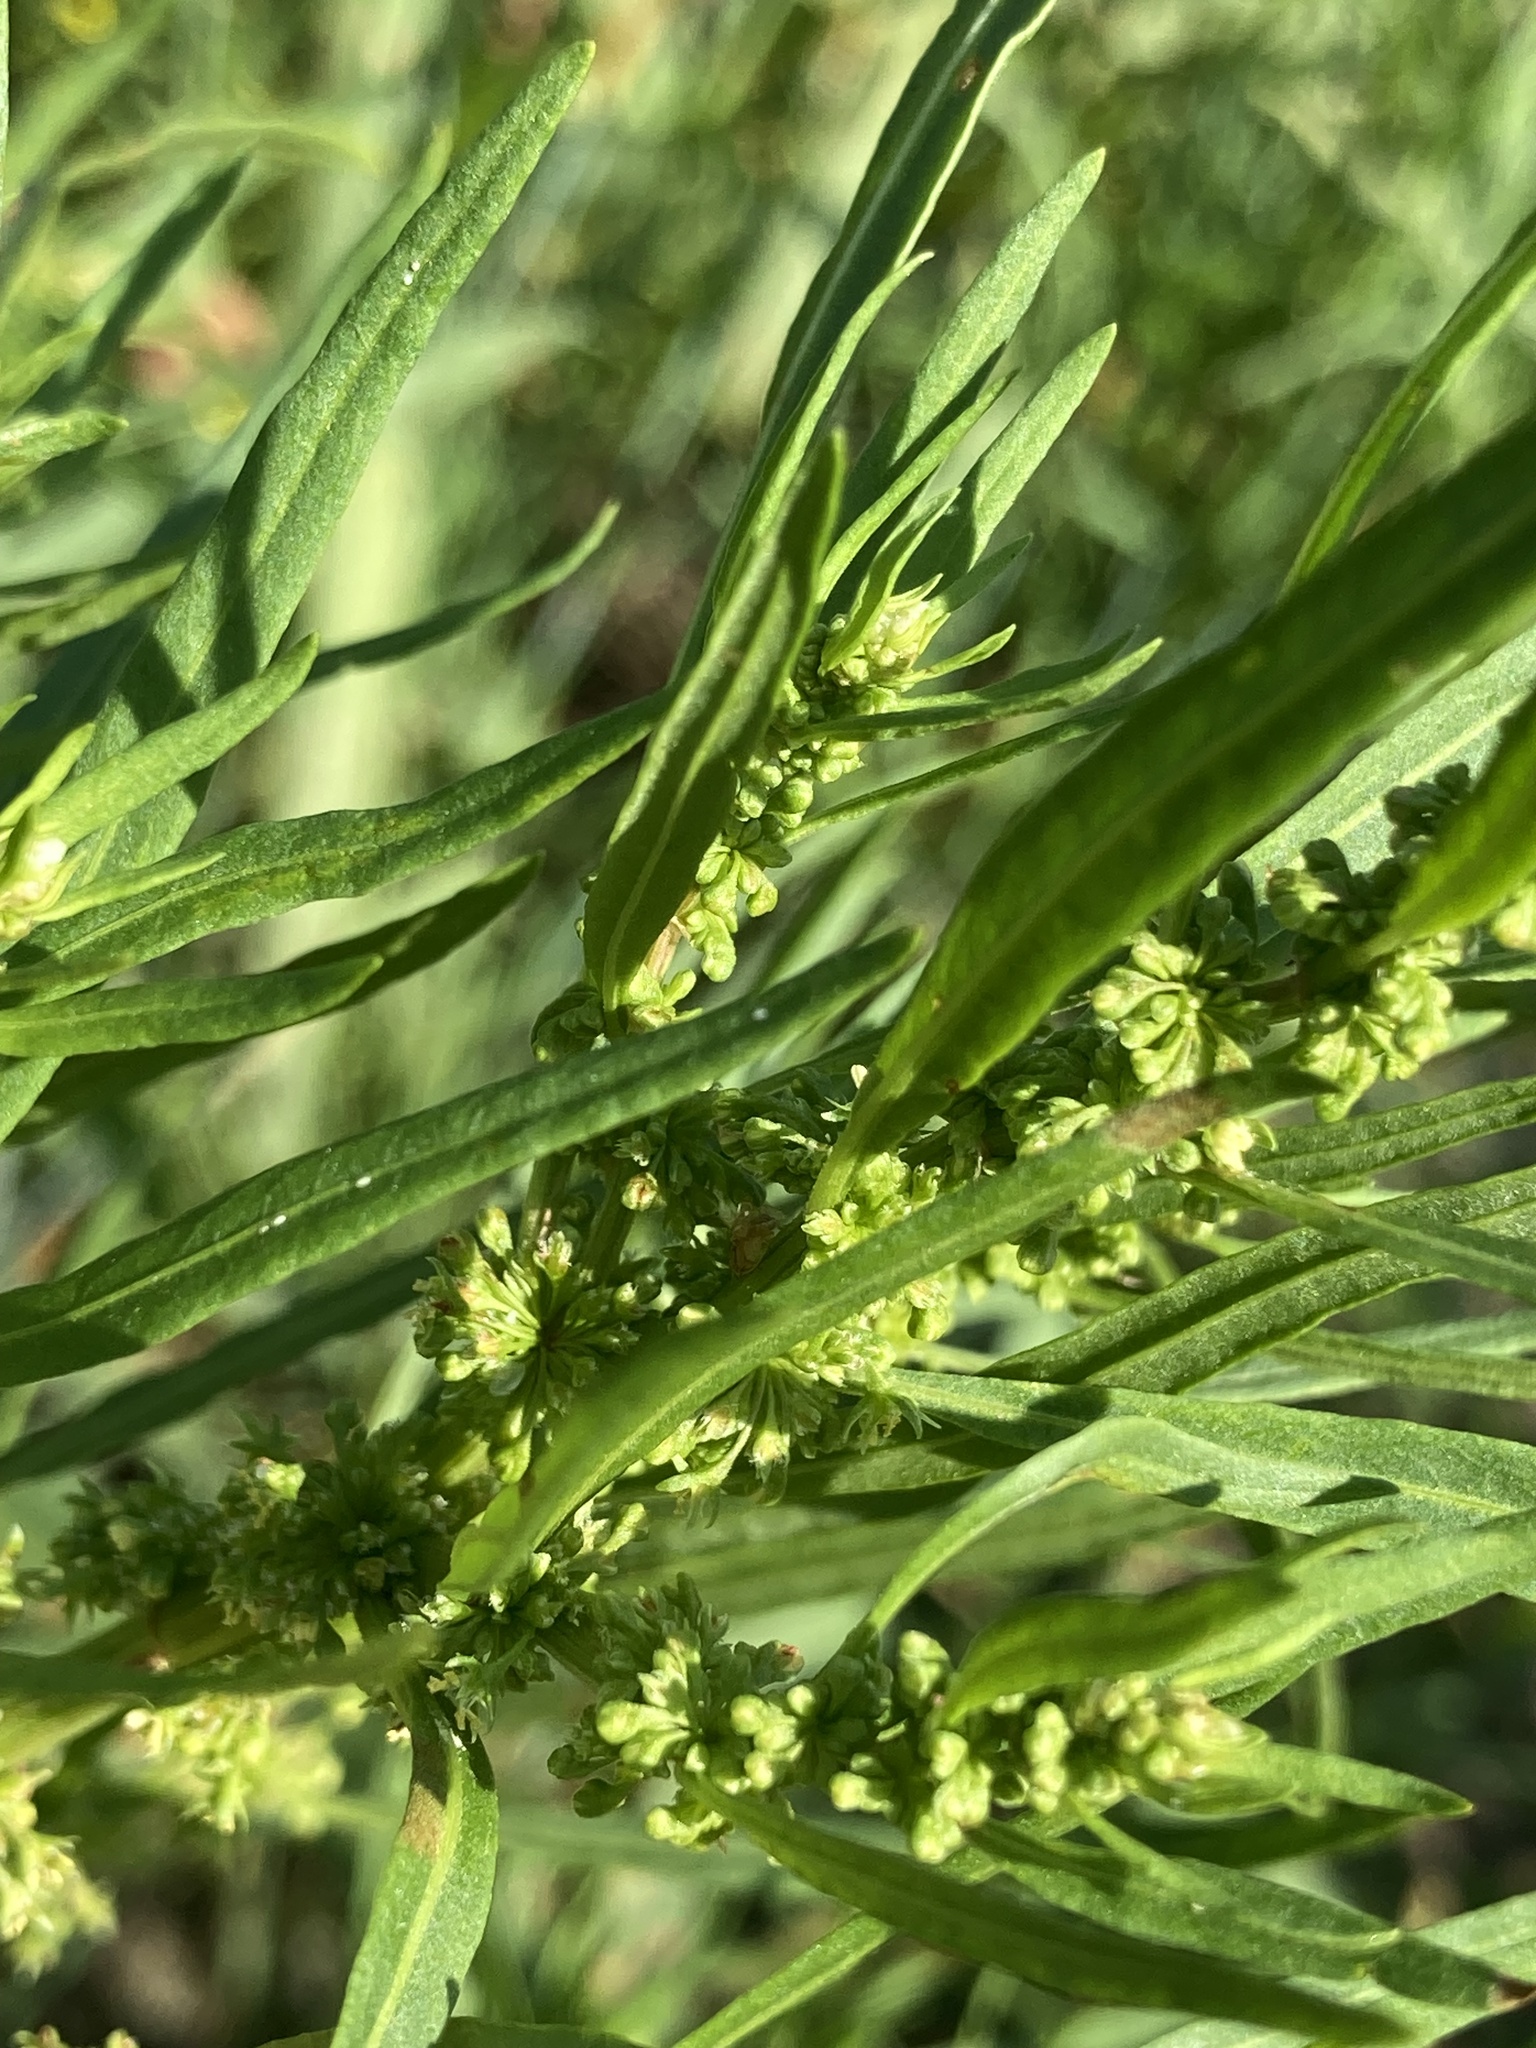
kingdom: Plantae
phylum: Tracheophyta
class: Magnoliopsida
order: Caryophyllales
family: Polygonaceae
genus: Rumex
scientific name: Rumex maritimus
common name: Golden dock
